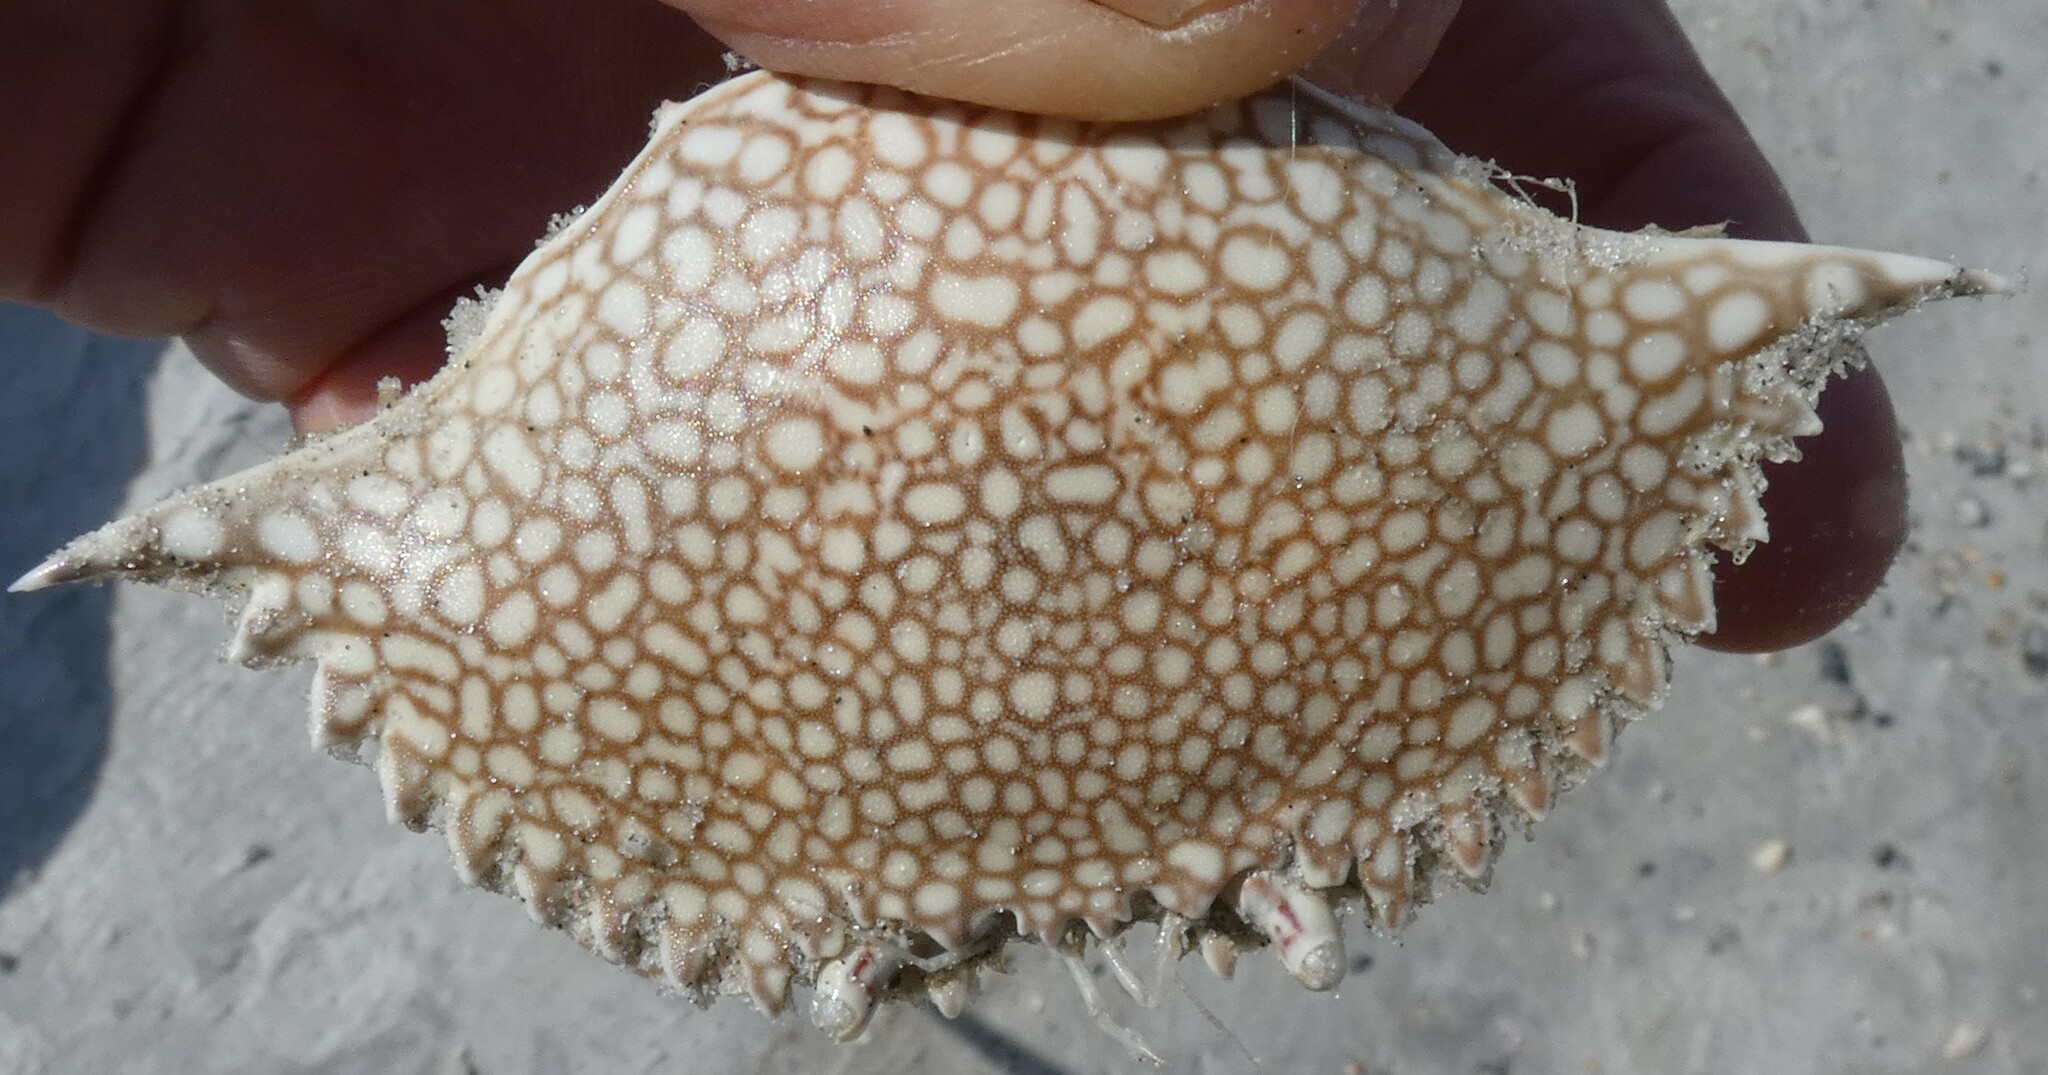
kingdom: Animalia
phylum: Arthropoda
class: Malacostraca
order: Decapoda
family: Portunidae
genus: Arenaeus
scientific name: Arenaeus cribrarius
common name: Speckled crab
